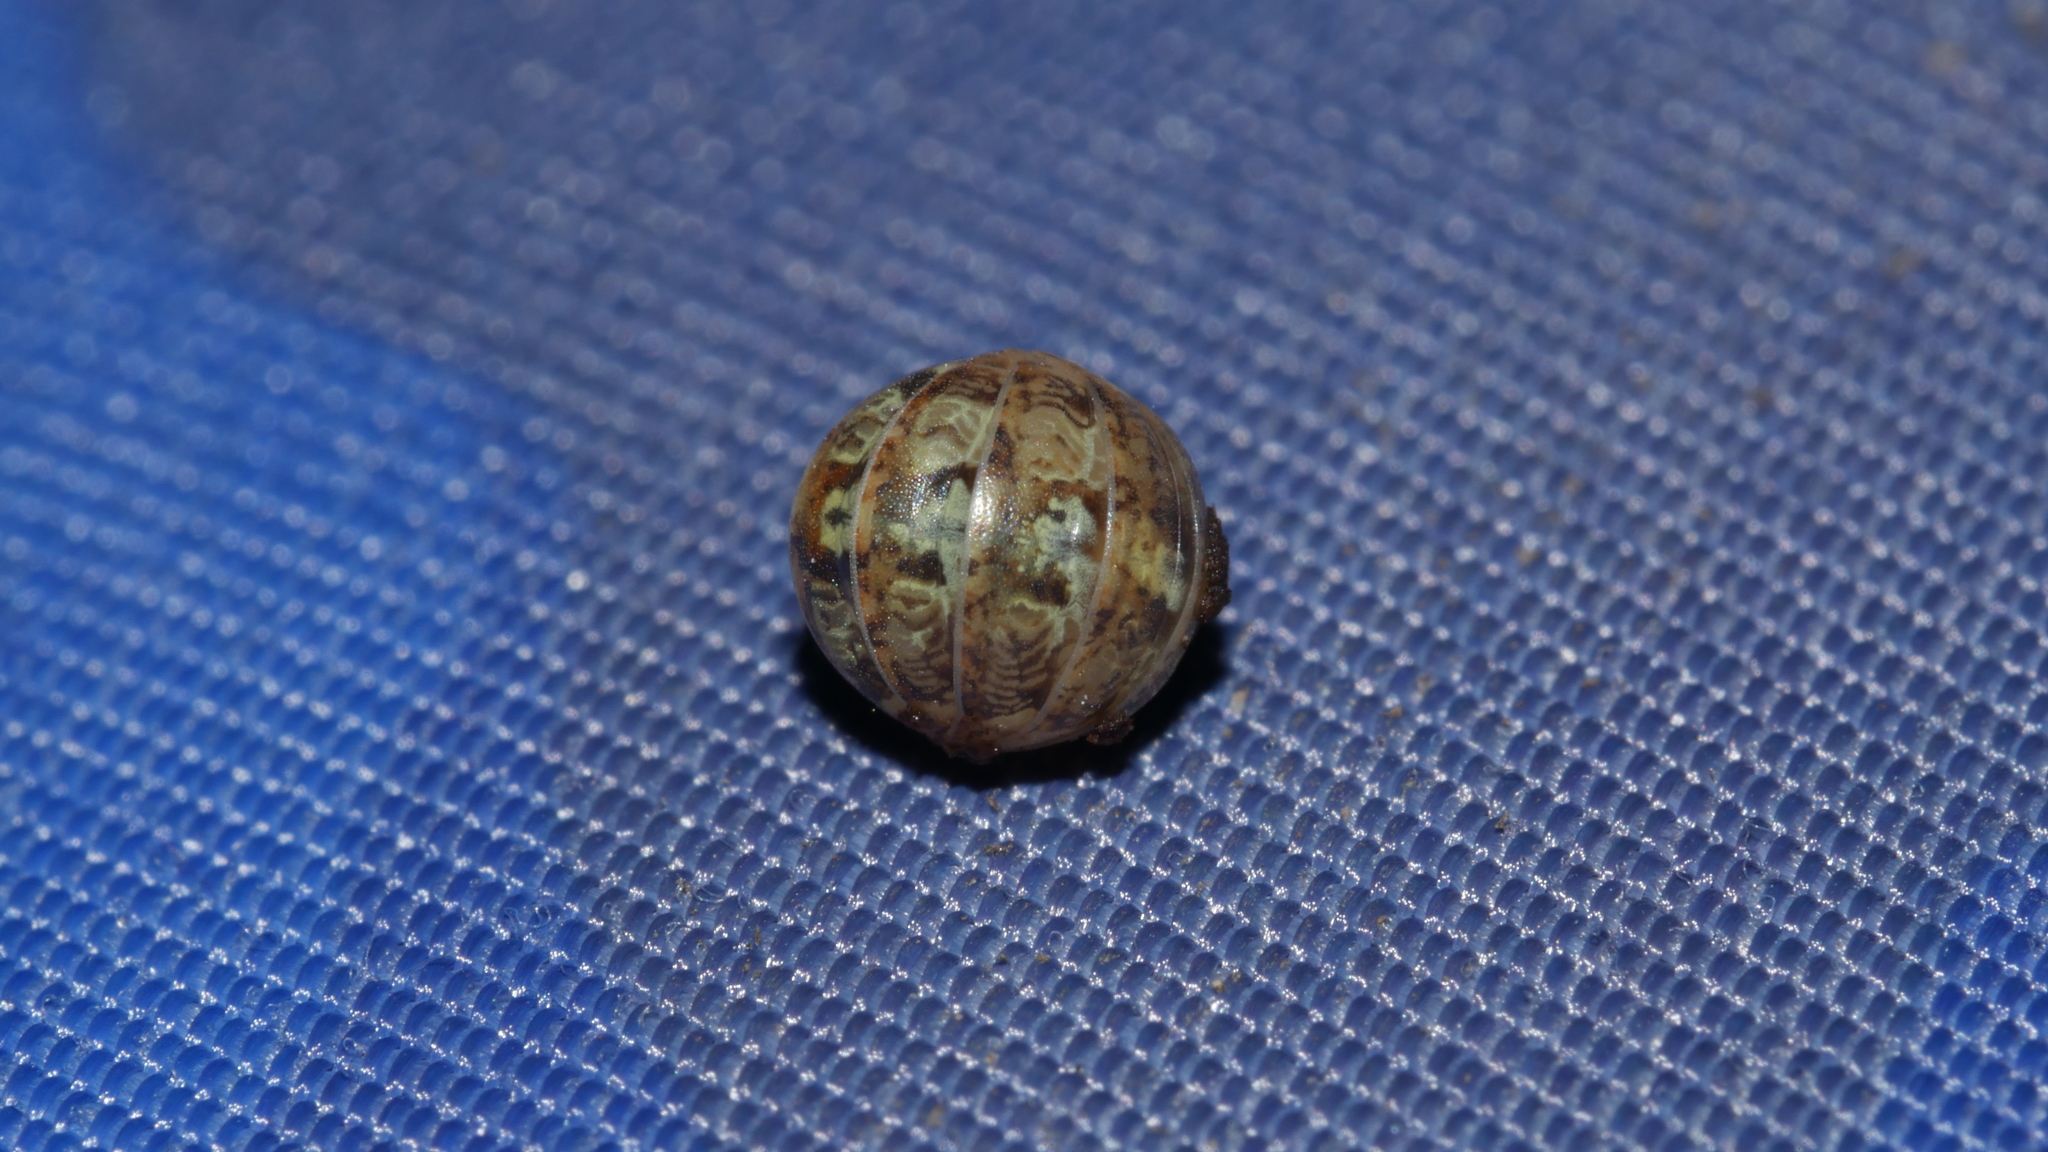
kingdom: Animalia
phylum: Arthropoda
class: Malacostraca
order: Isopoda
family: Armadillidiidae
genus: Armadillidium
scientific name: Armadillidium vulgare
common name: Common pill woodlouse
